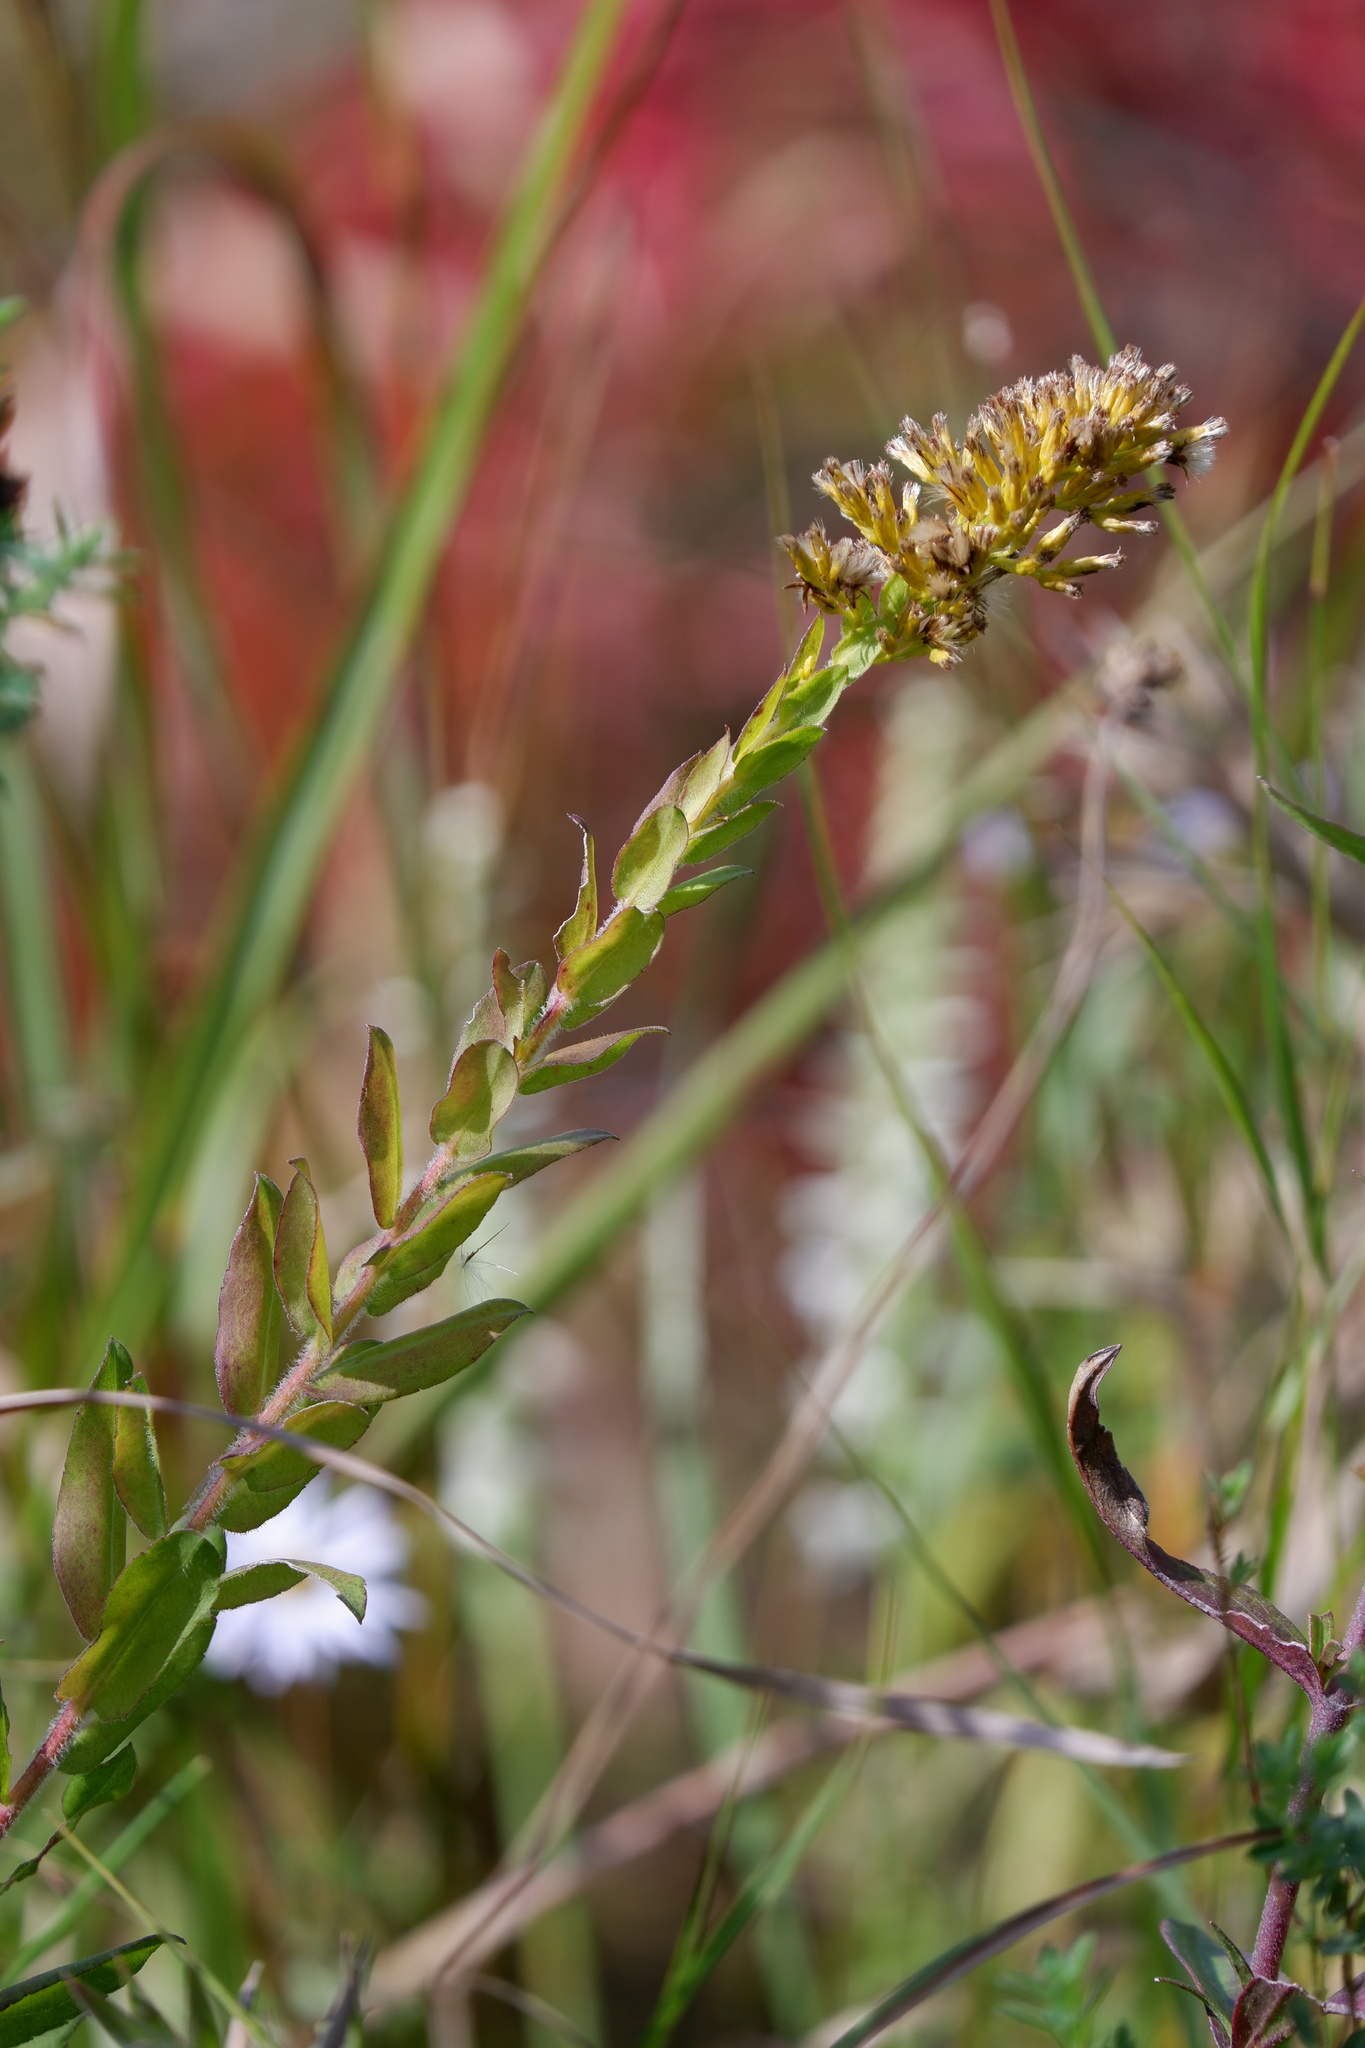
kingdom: Plantae
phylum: Tracheophyta
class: Magnoliopsida
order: Asterales
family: Asteraceae
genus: Solidago
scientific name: Solidago fistulosa
